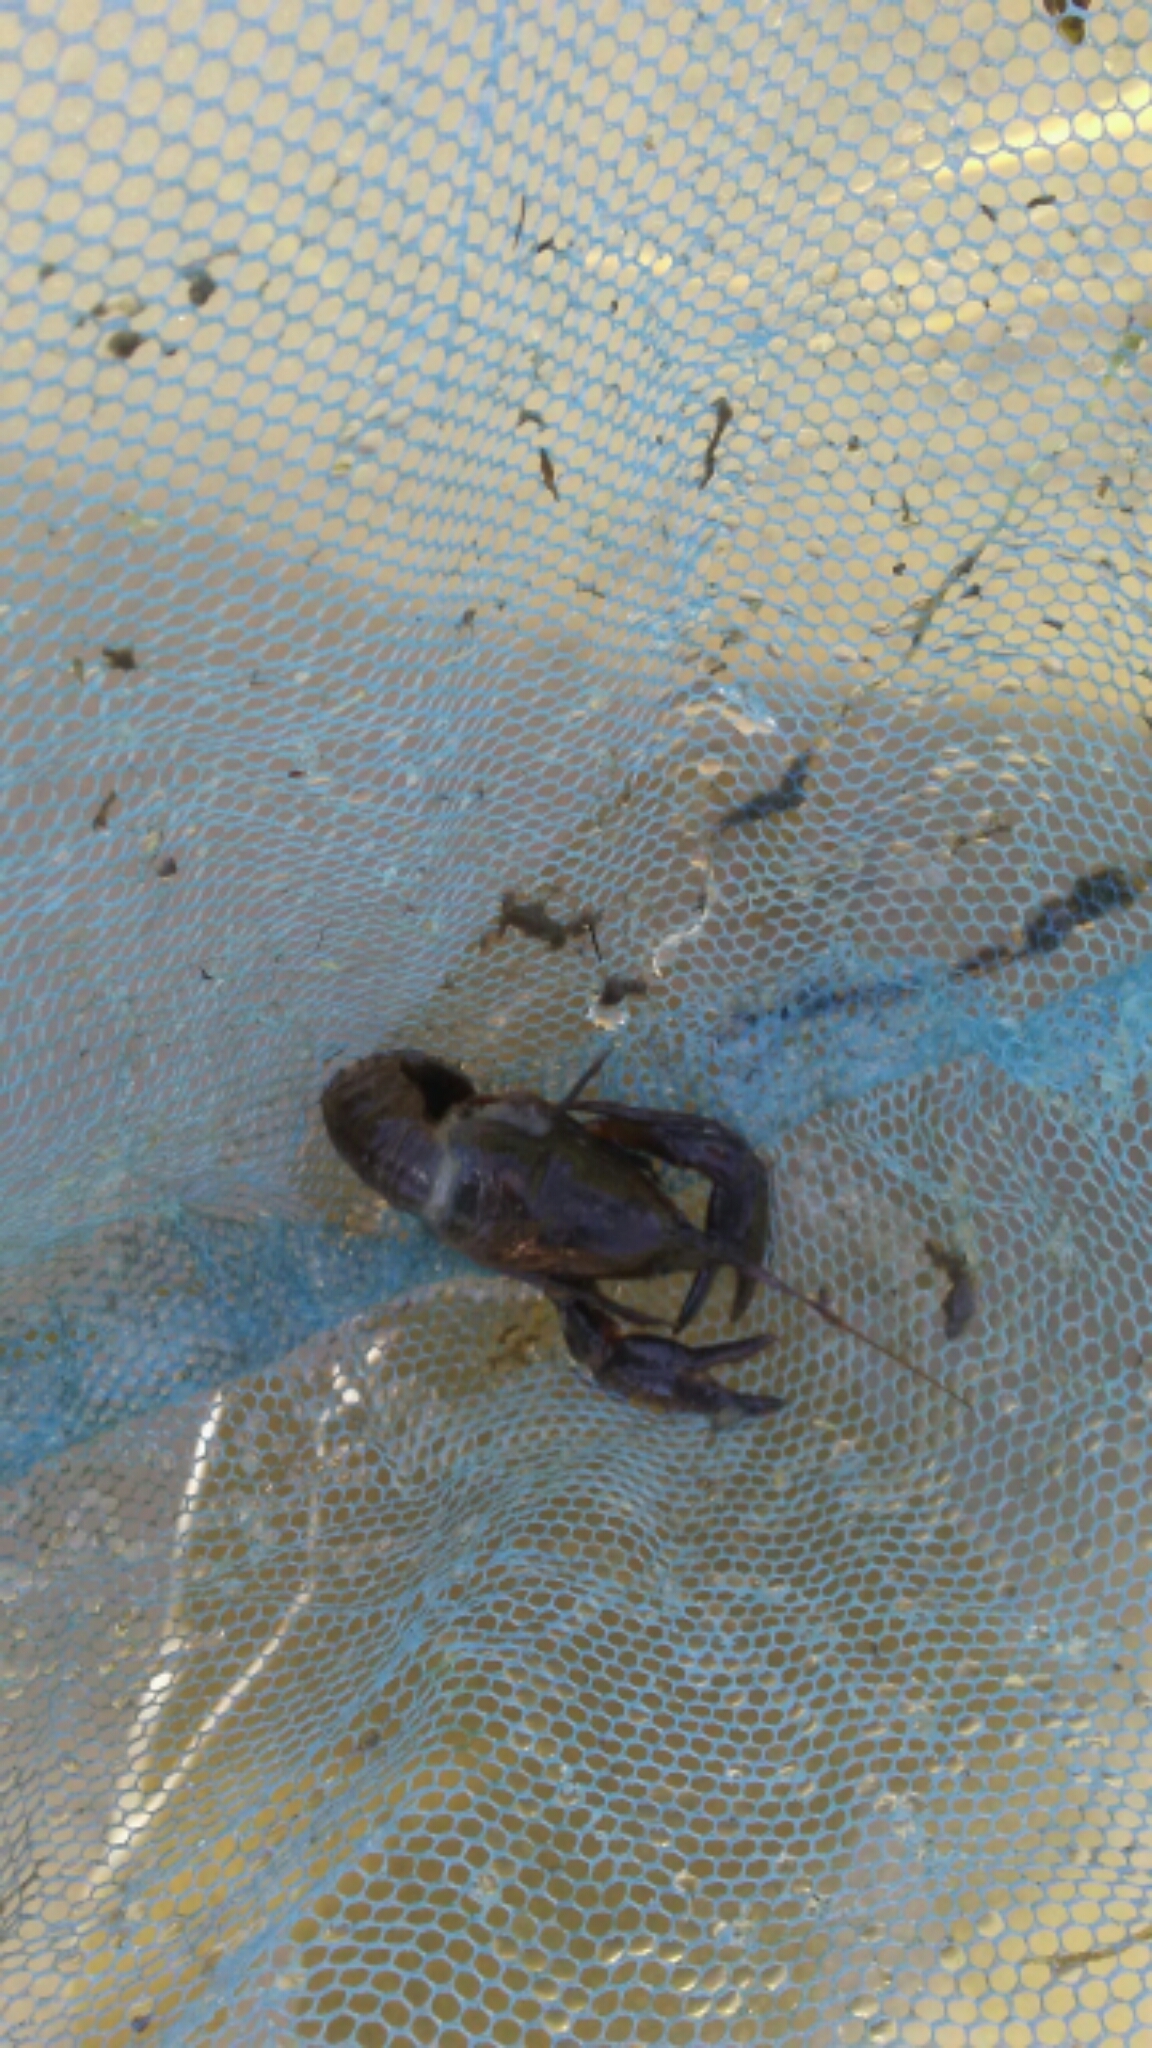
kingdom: Animalia
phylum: Arthropoda
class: Malacostraca
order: Decapoda
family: Astacidae
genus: Pacifastacus
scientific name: Pacifastacus leniusculus
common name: Signal crayfish
